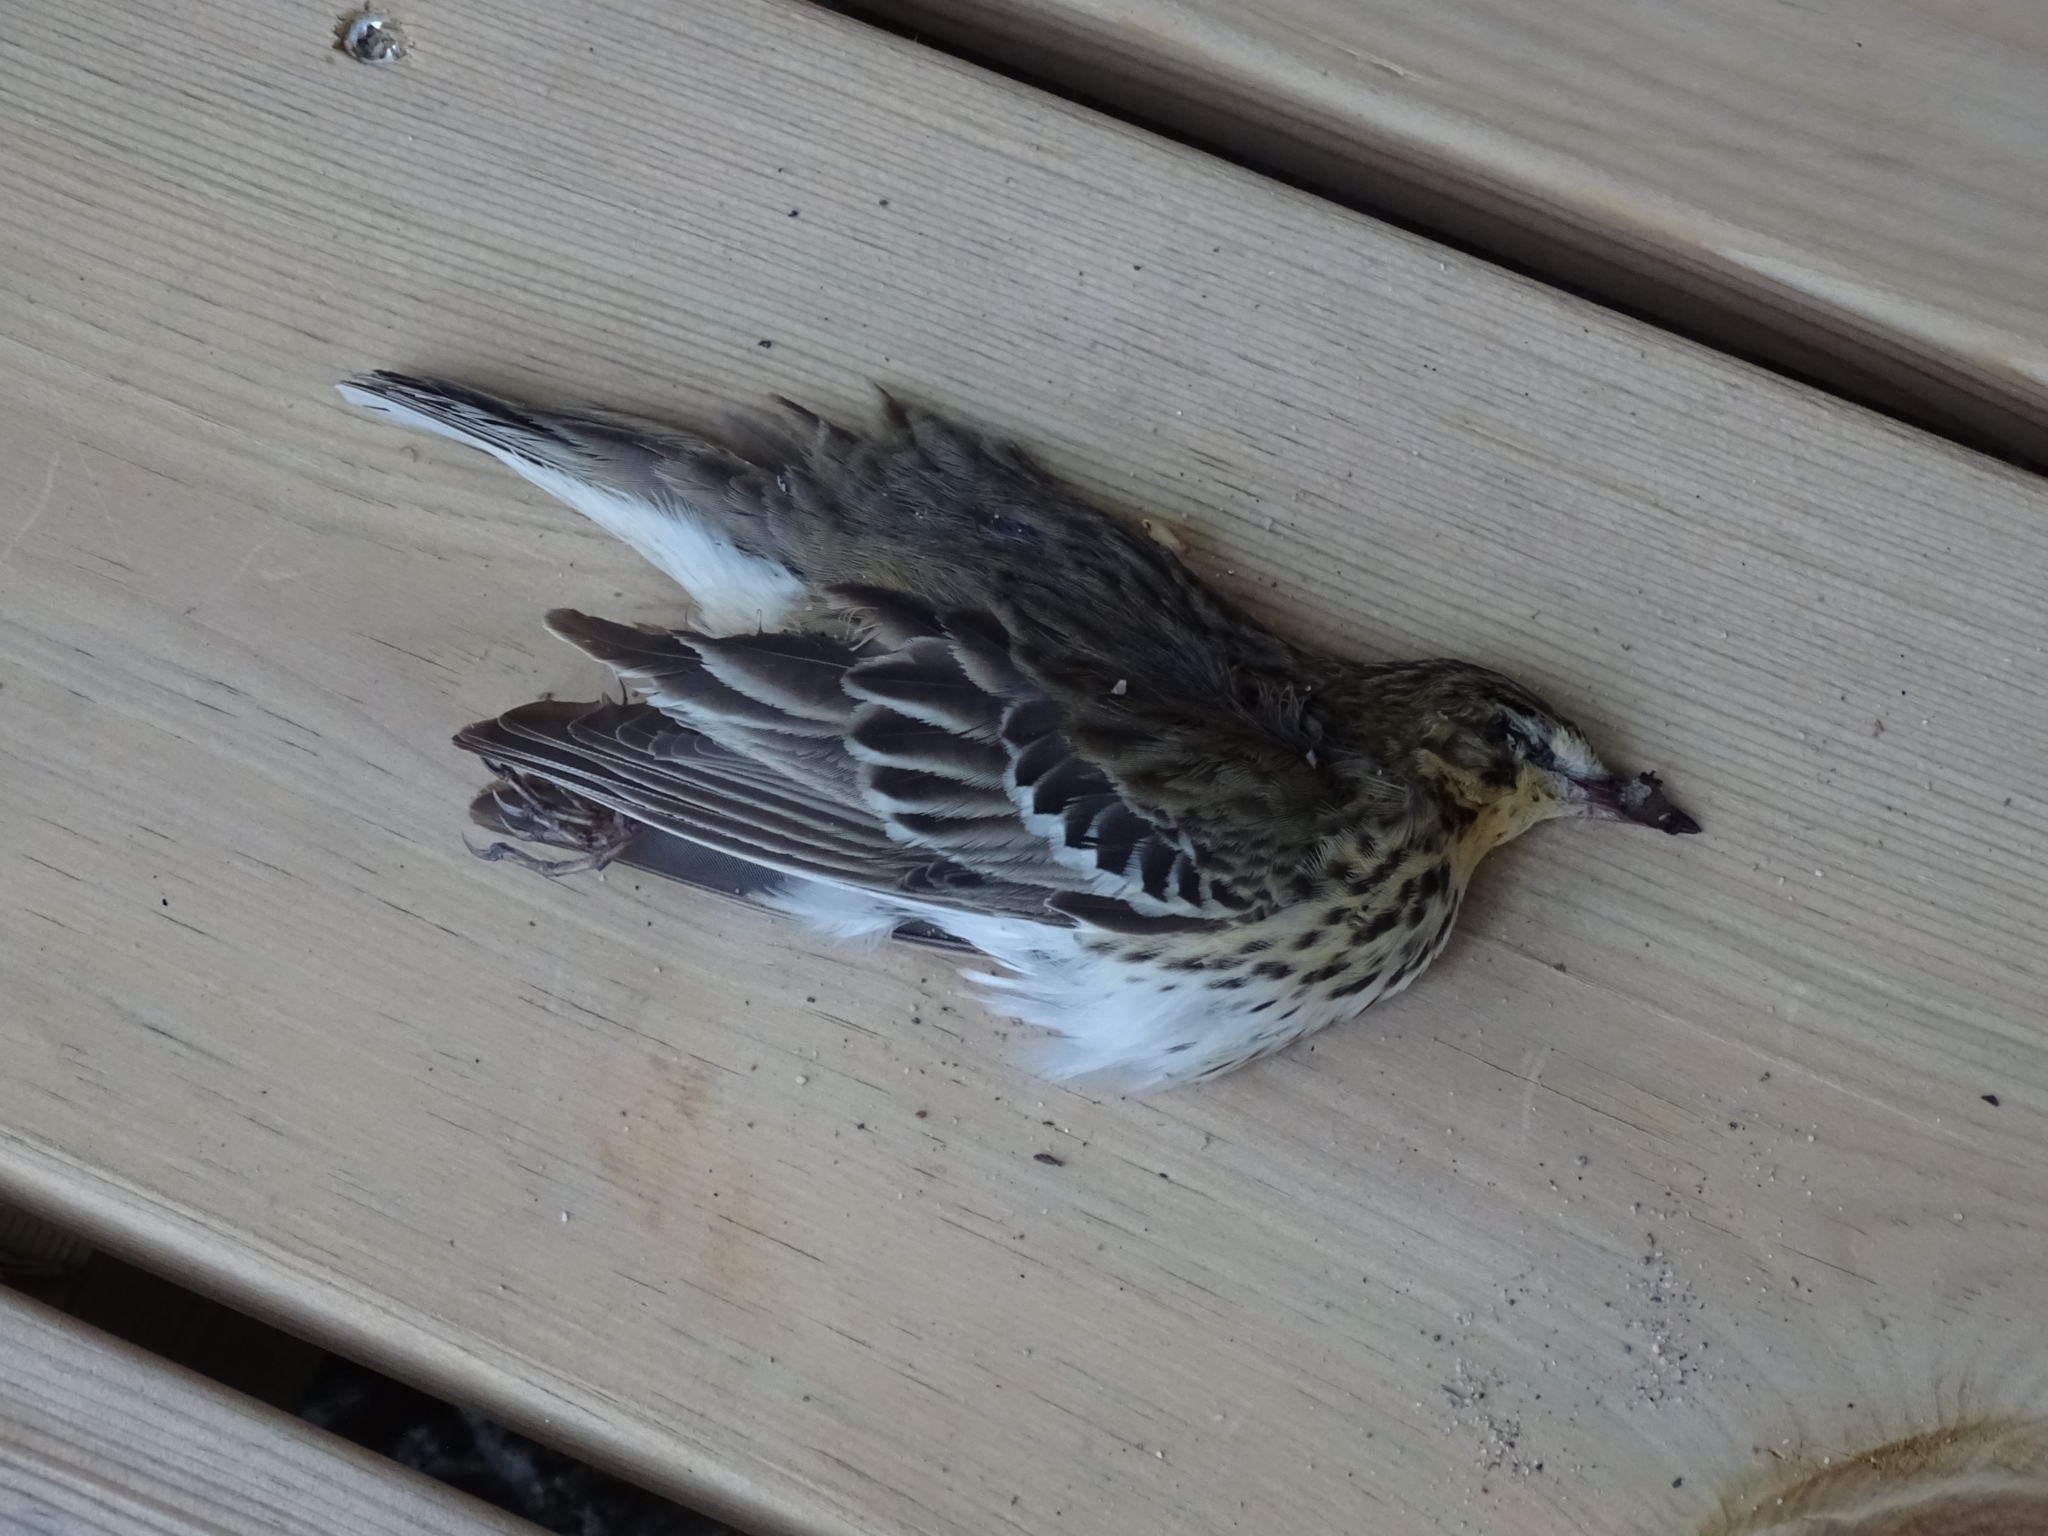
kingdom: Animalia
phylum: Chordata
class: Aves
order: Passeriformes
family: Motacillidae
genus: Anthus
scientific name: Anthus trivialis
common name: Tree pipit
